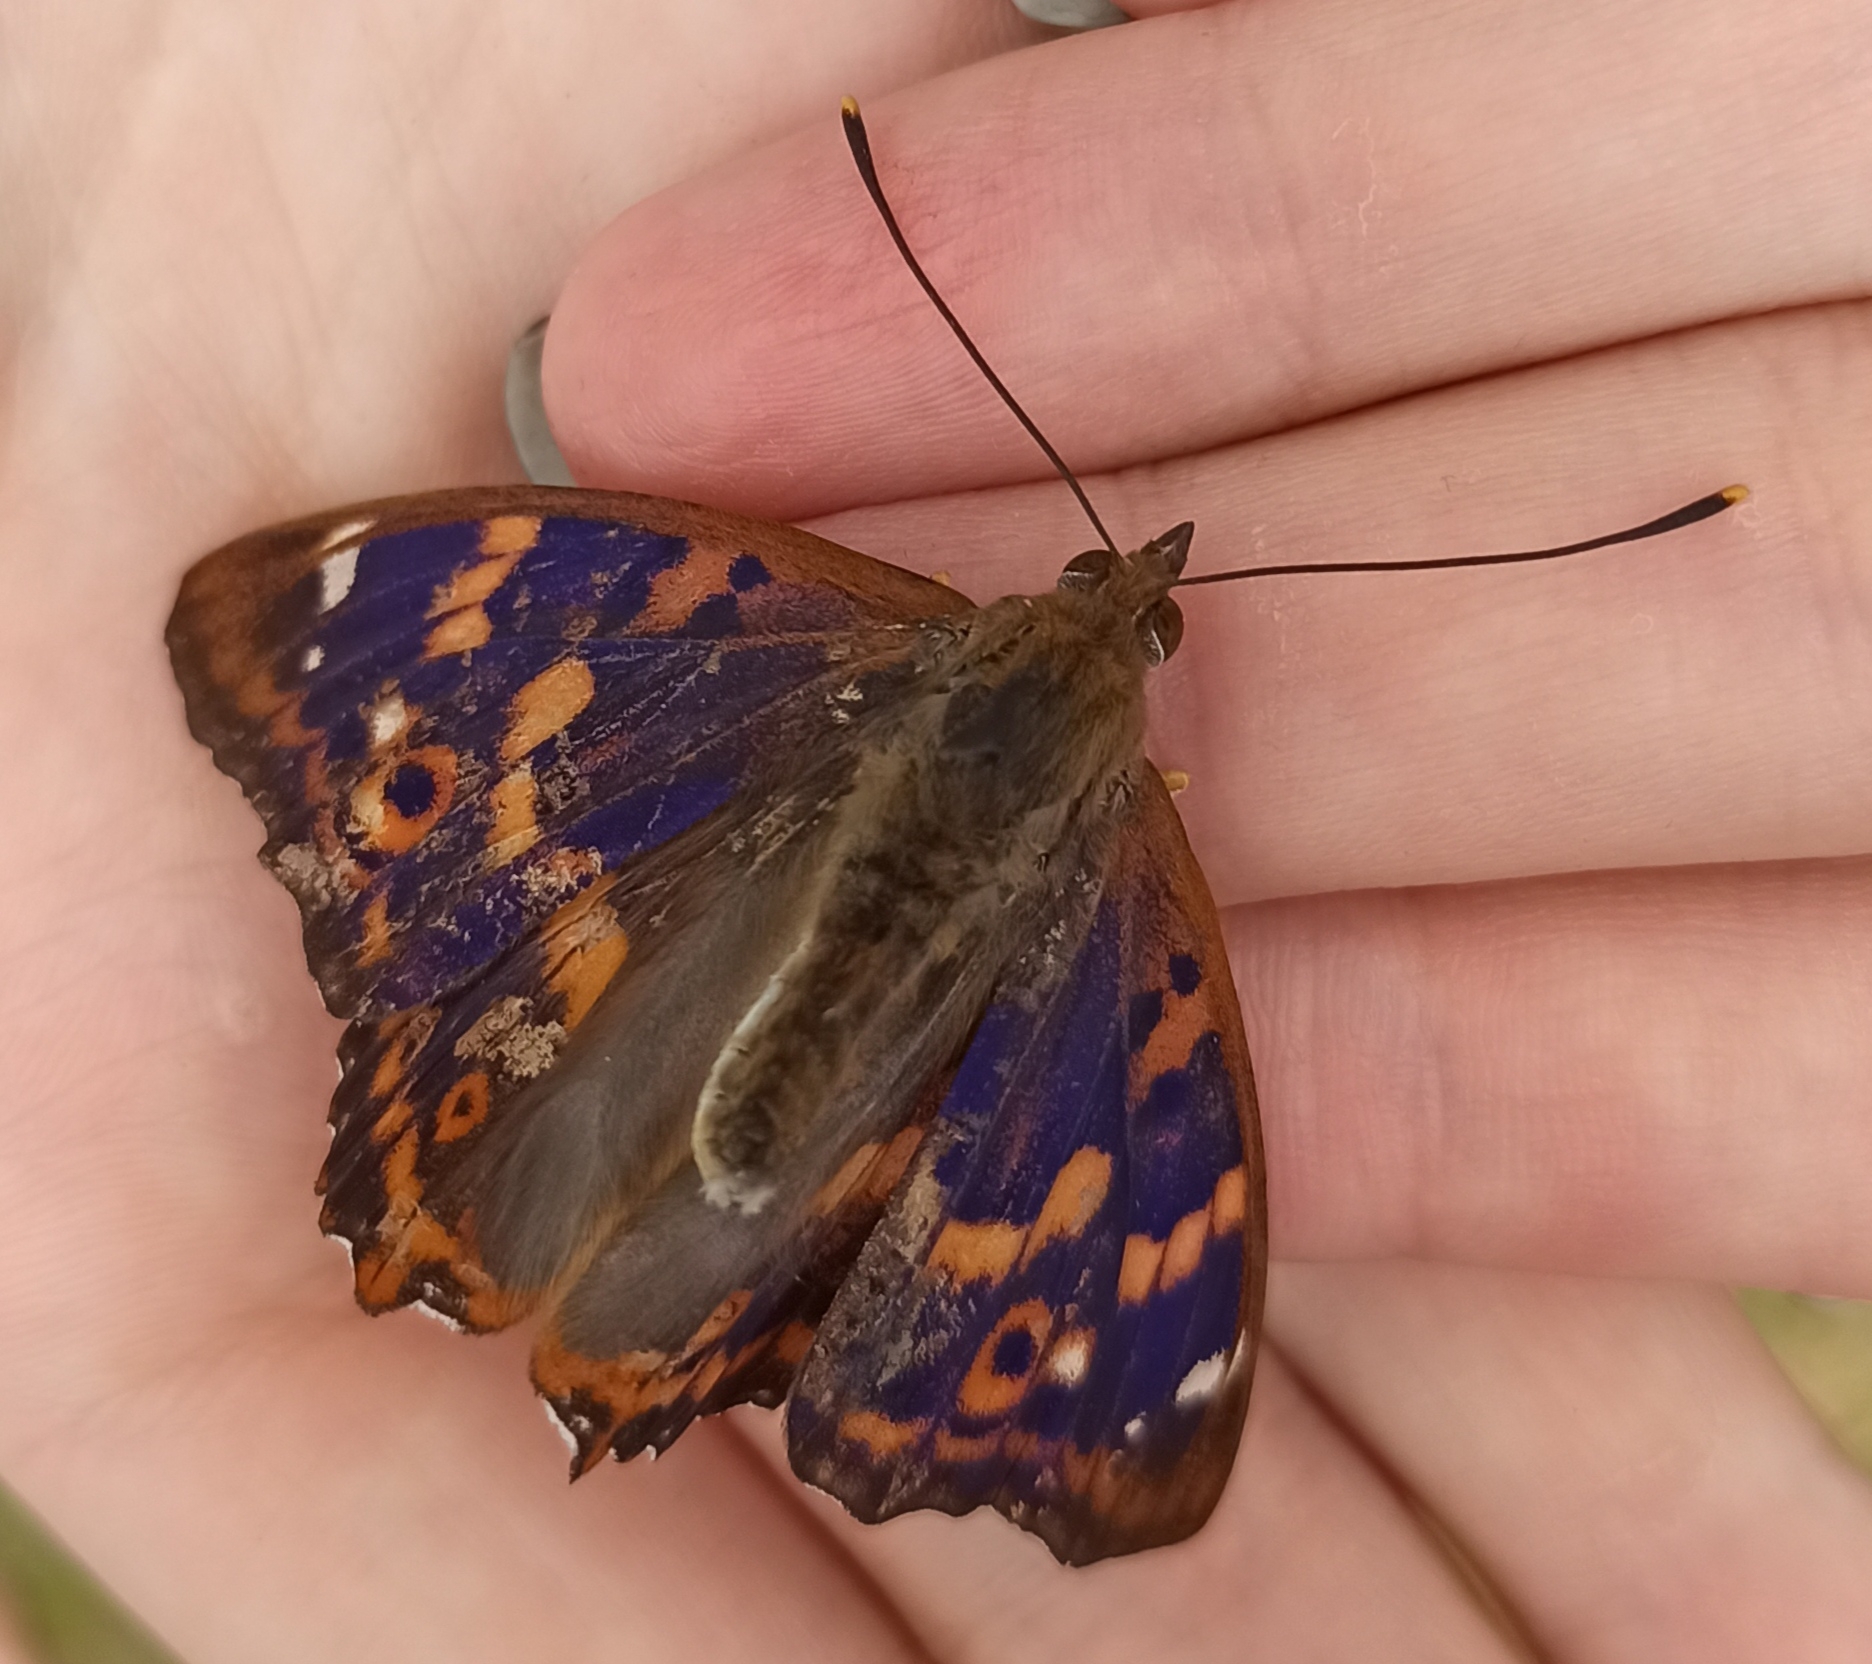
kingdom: Animalia
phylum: Arthropoda
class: Insecta
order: Lepidoptera
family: Nymphalidae
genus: Apatura
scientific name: Apatura ilia
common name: Lesser purple emperor
